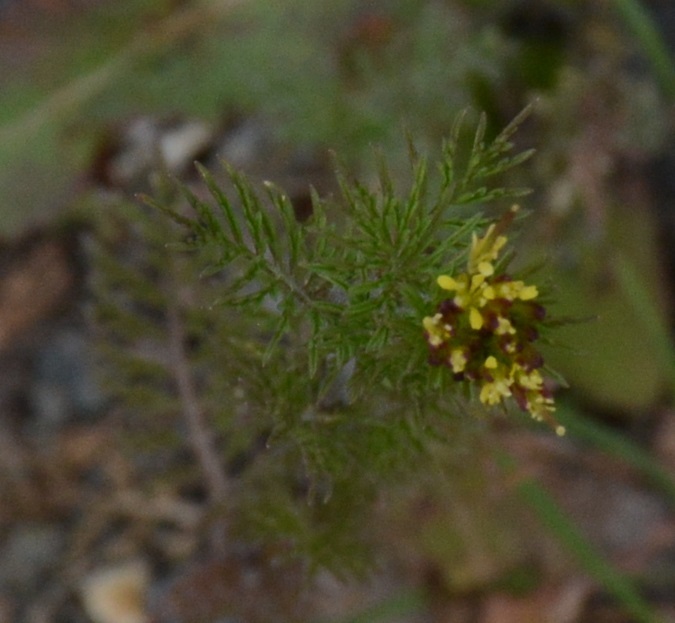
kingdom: Plantae
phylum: Tracheophyta
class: Magnoliopsida
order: Brassicales
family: Brassicaceae
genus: Descurainia
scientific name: Descurainia sophia
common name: Flixweed
